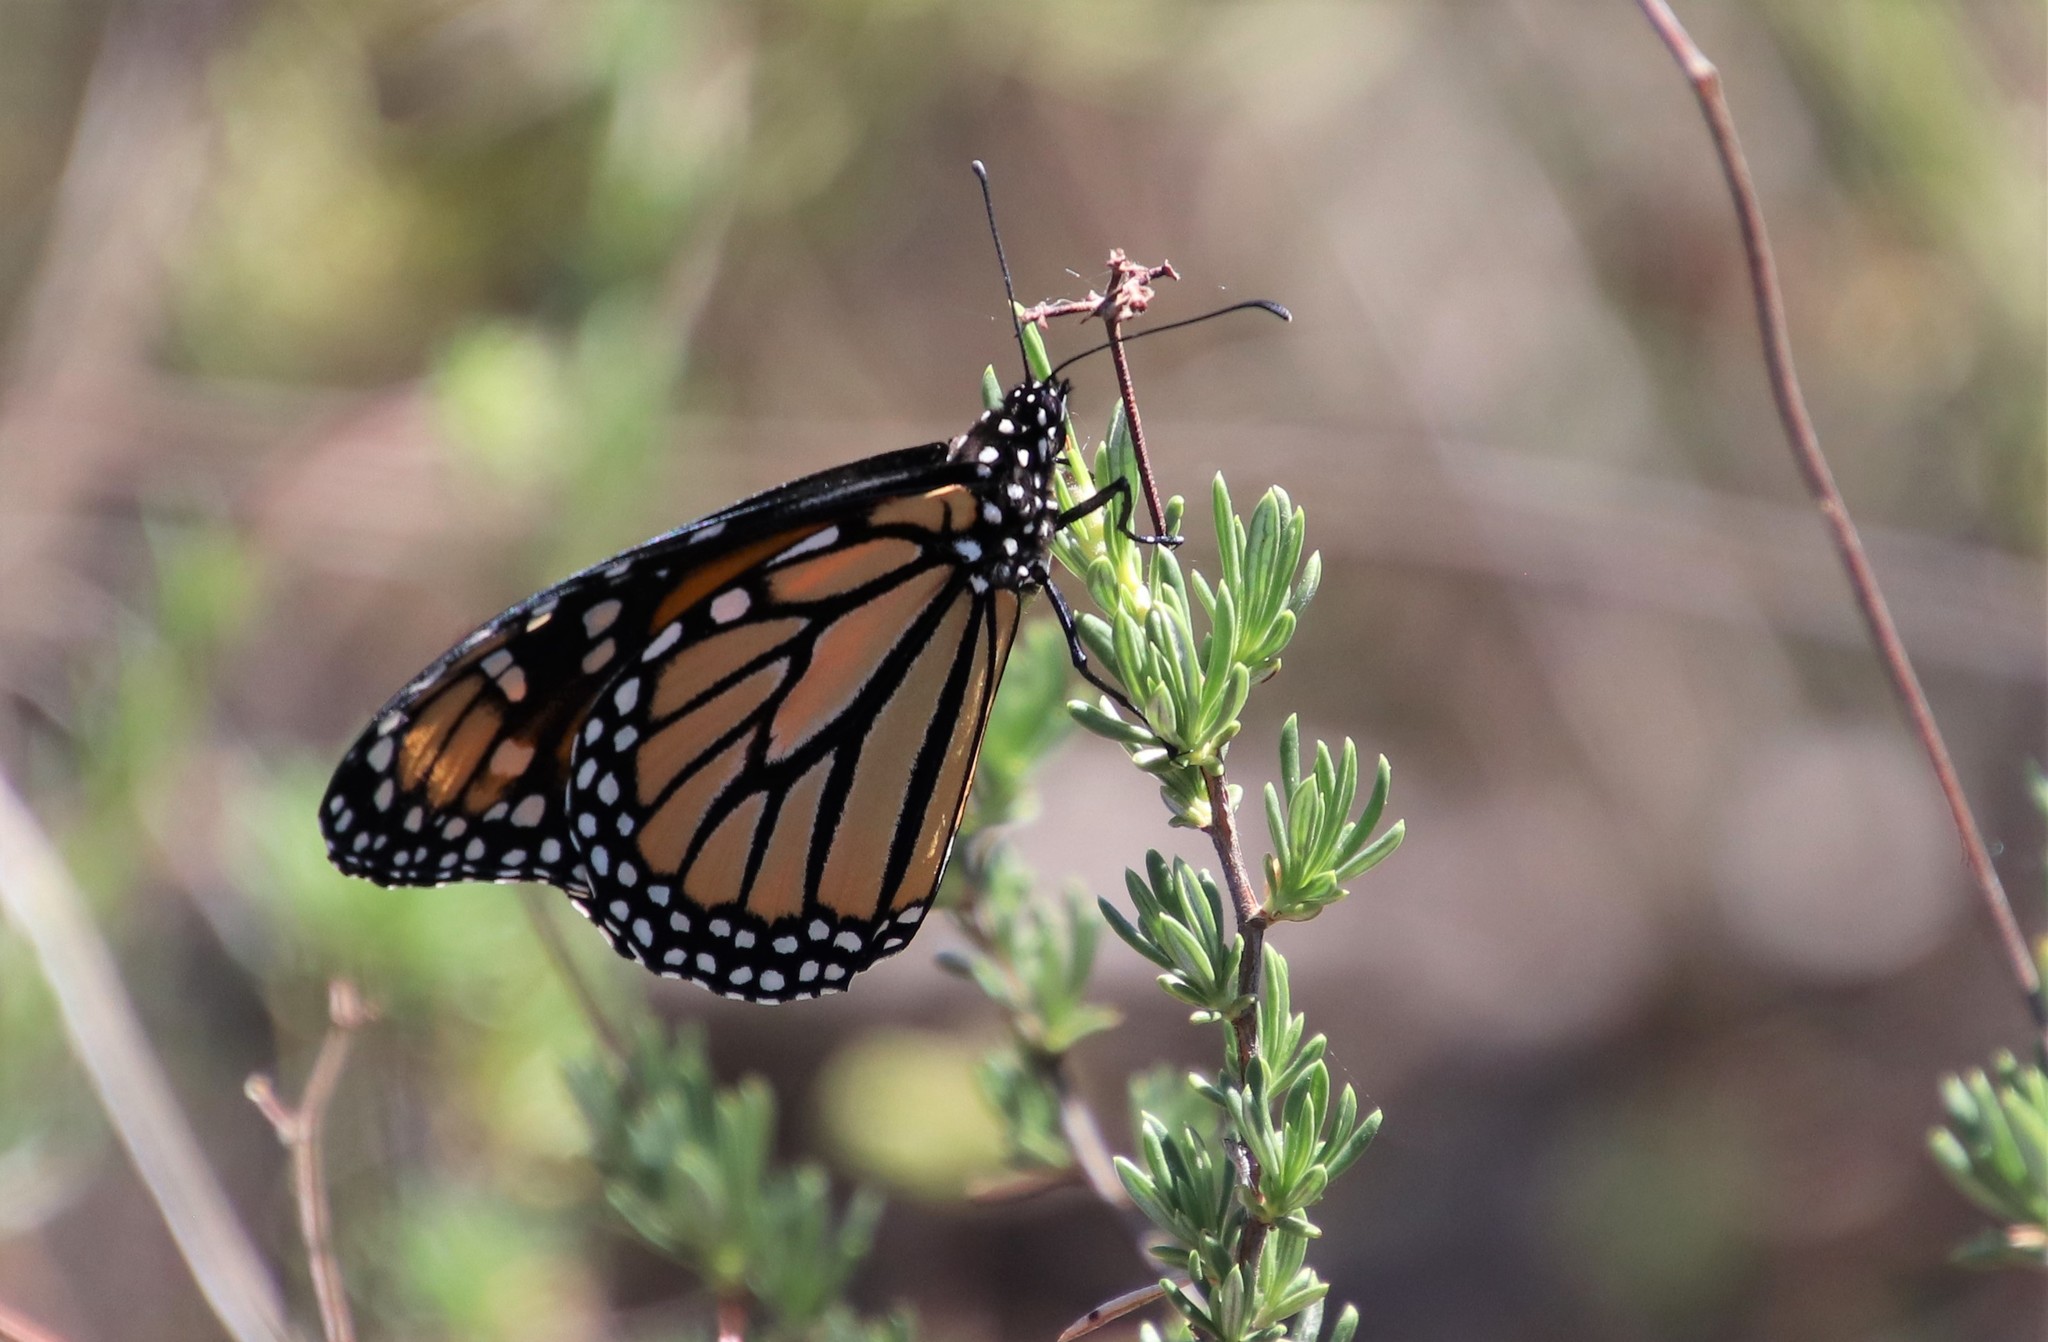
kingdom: Animalia
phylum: Arthropoda
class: Insecta
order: Lepidoptera
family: Nymphalidae
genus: Danaus
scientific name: Danaus plexippus
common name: Monarch
